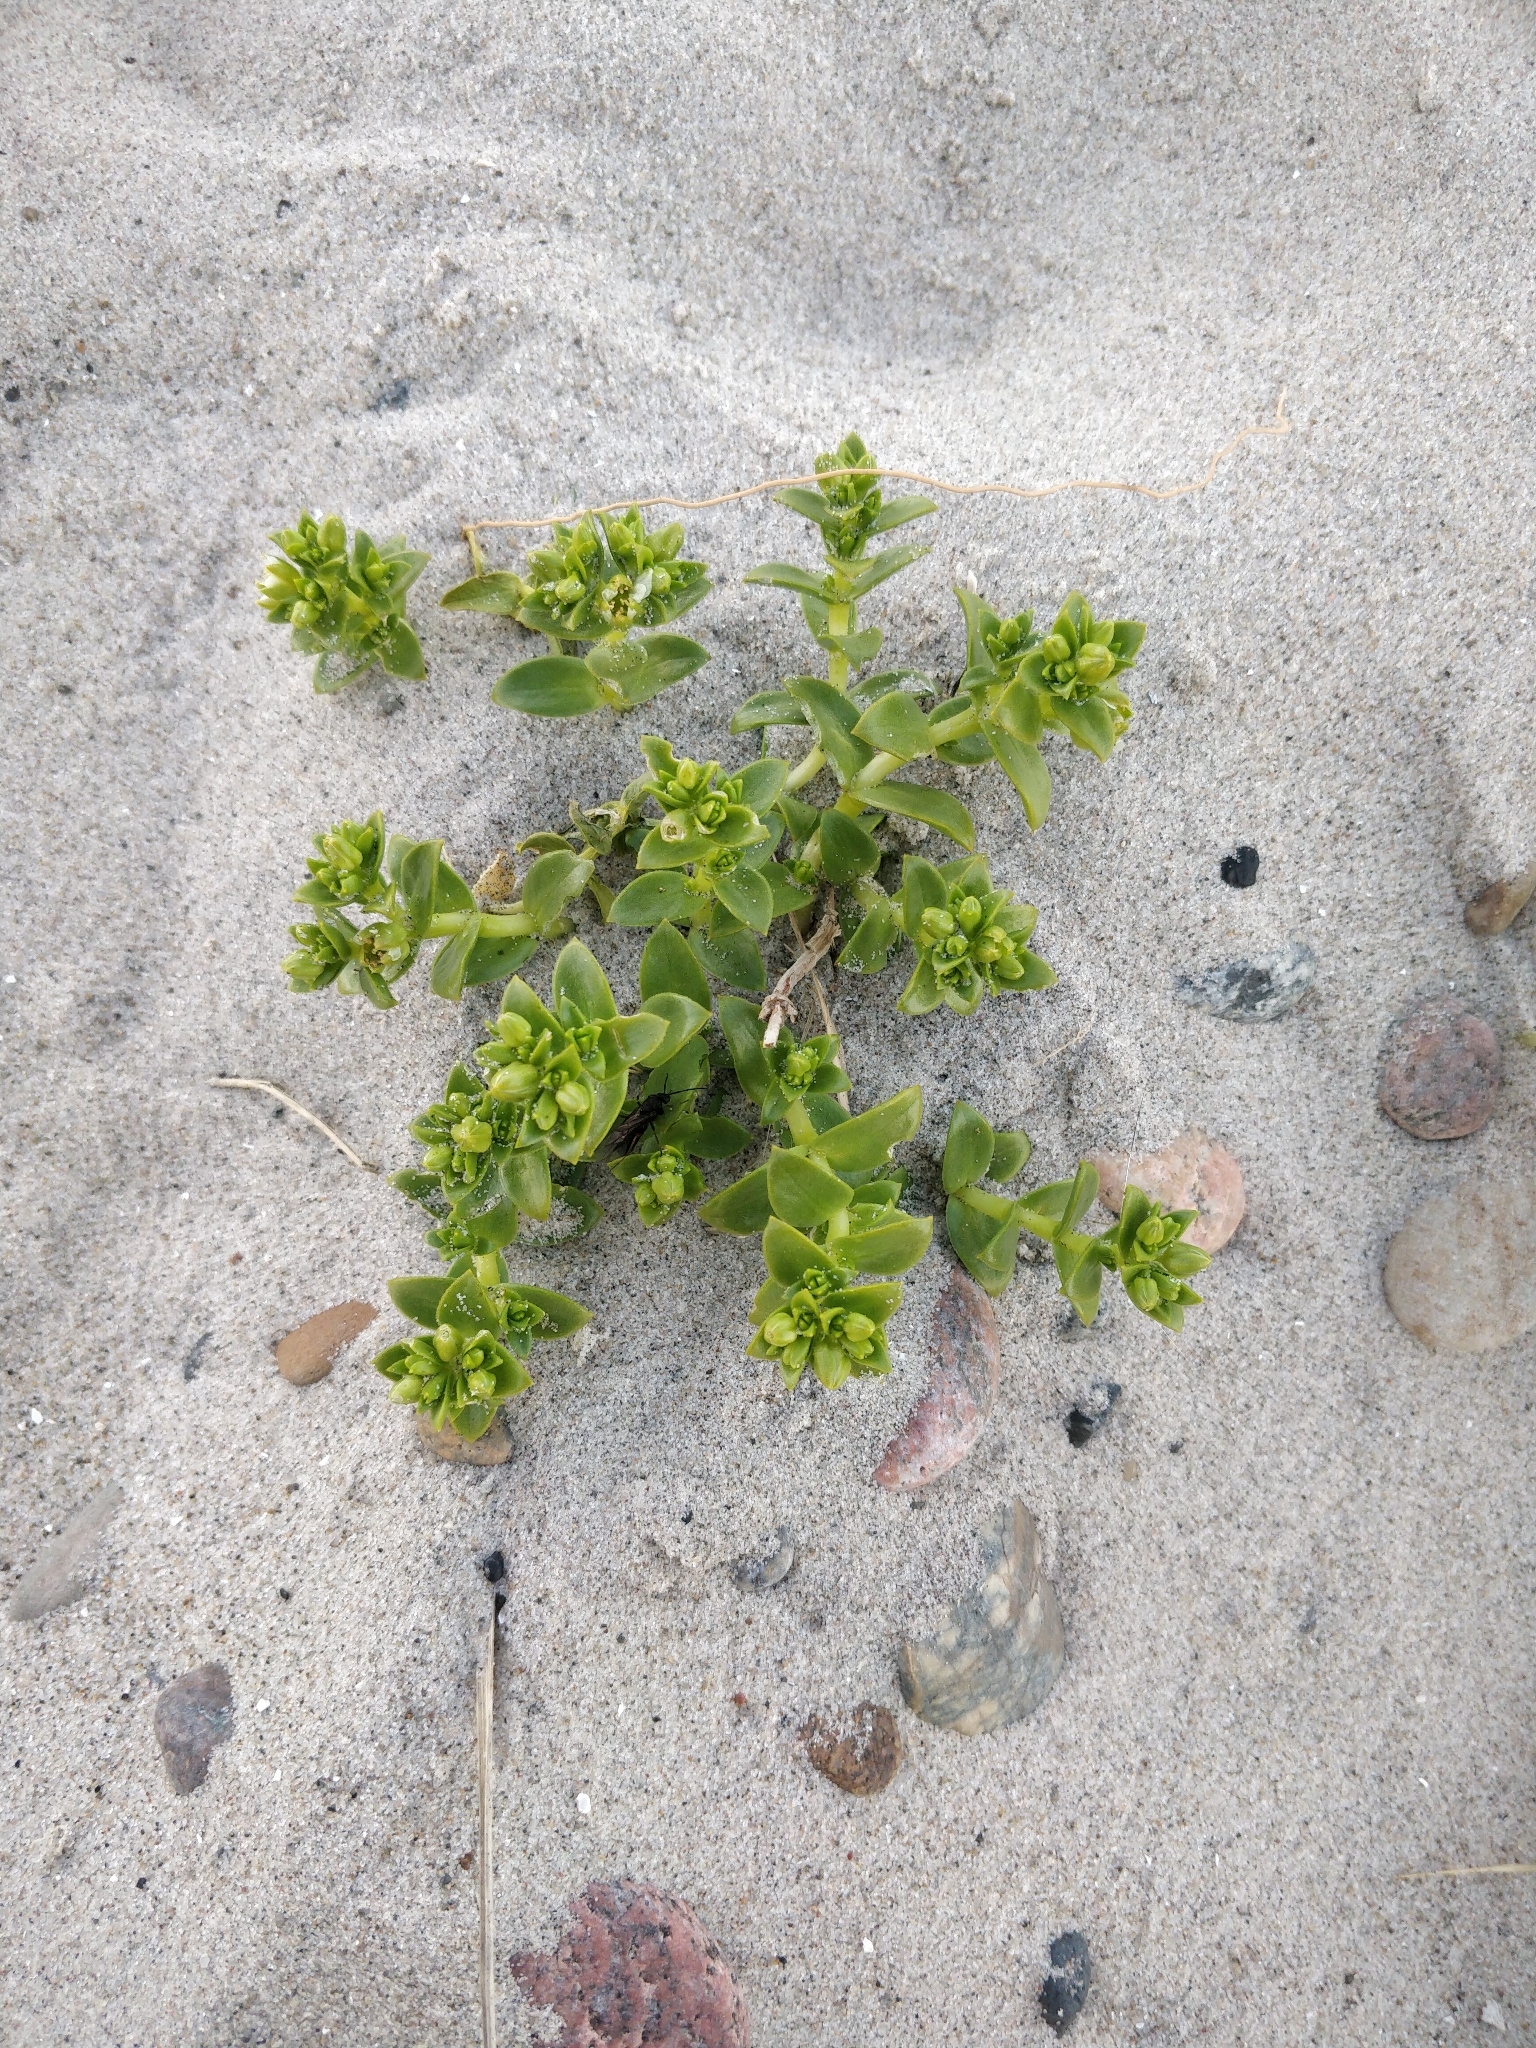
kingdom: Plantae
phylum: Tracheophyta
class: Magnoliopsida
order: Caryophyllales
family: Caryophyllaceae
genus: Honckenya
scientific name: Honckenya peploides
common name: Sea sandwort
